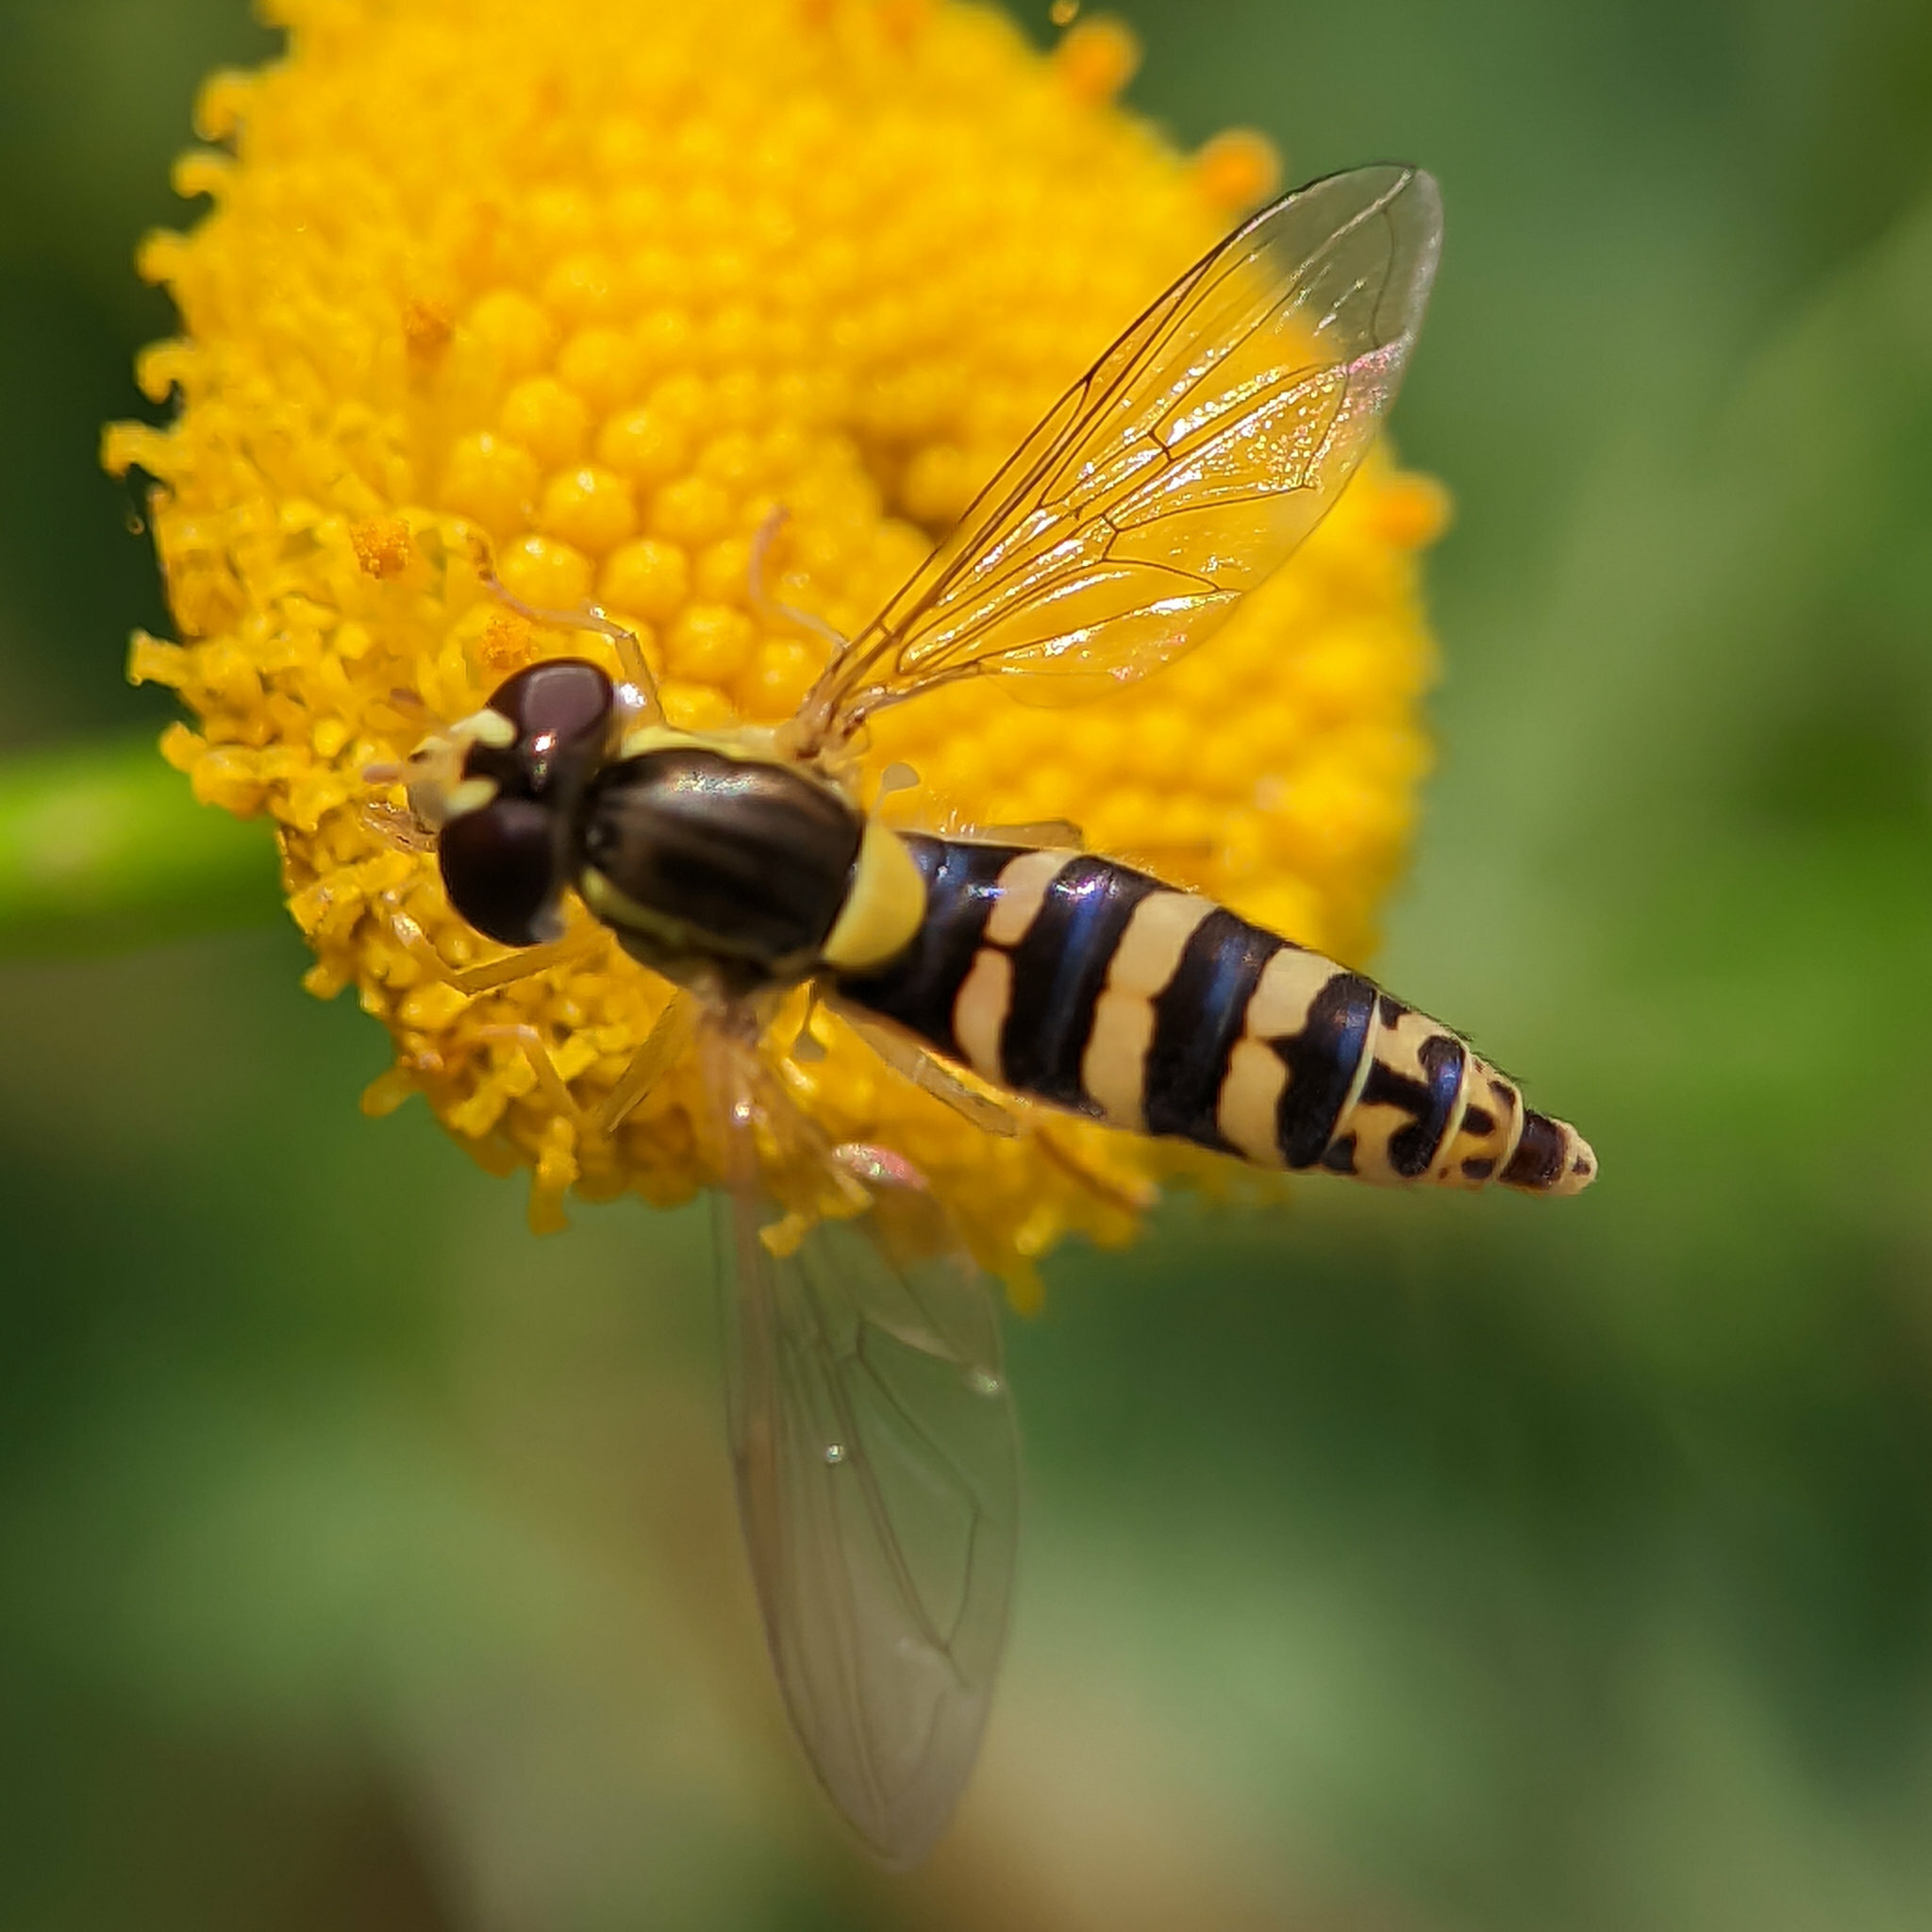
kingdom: Animalia
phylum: Arthropoda
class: Insecta
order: Diptera
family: Syrphidae
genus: Sphaerophoria
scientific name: Sphaerophoria
